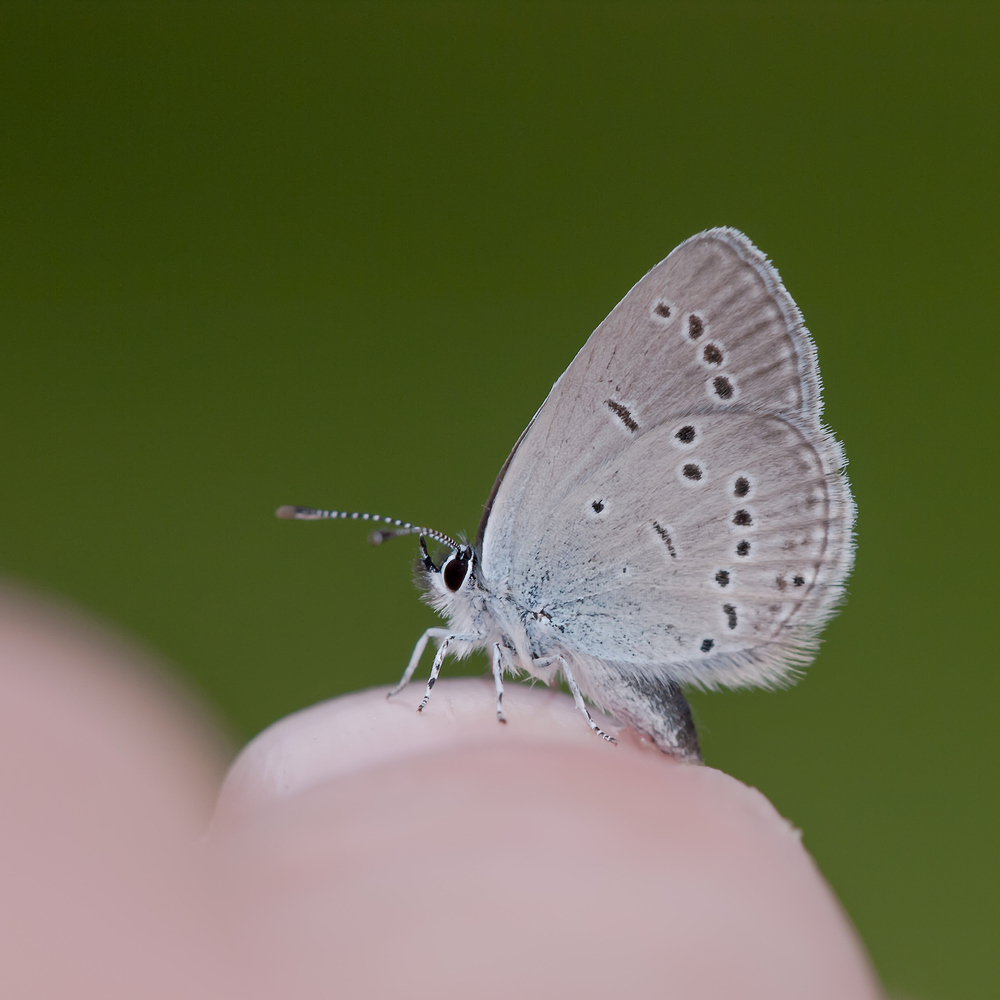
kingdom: Animalia
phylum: Arthropoda
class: Insecta
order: Lepidoptera
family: Lycaenidae
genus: Cupido
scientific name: Cupido minimus
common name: Small blue
